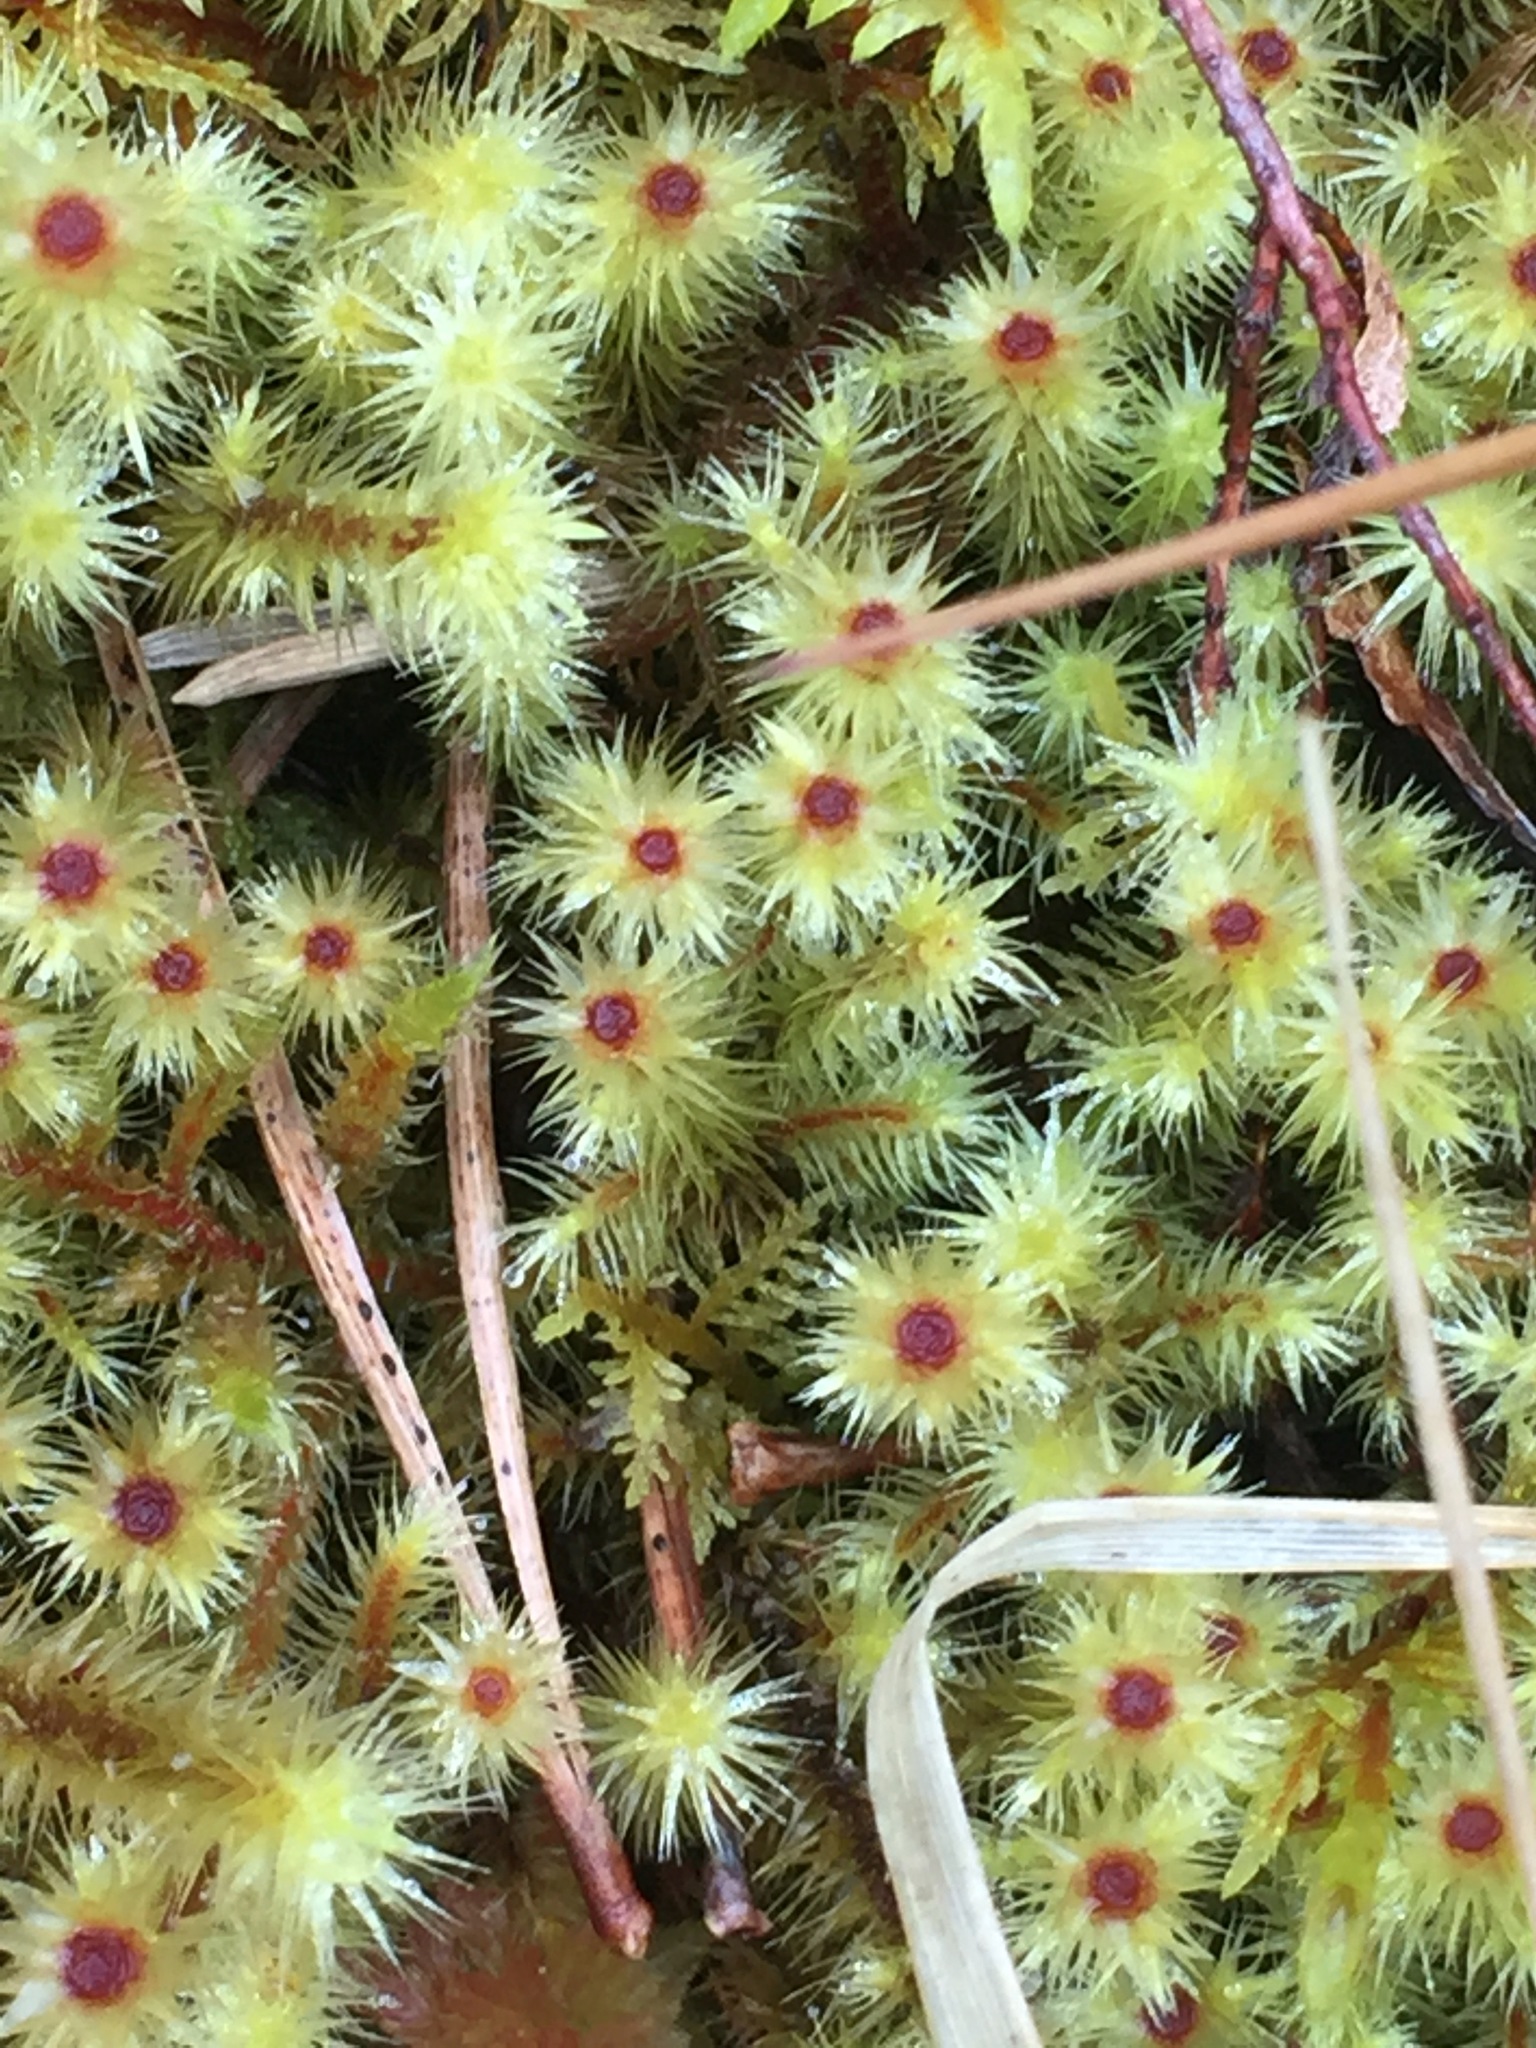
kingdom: Plantae
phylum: Bryophyta
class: Bryopsida
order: Bartramiales
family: Bartramiaceae
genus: Breutelia
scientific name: Breutelia chrysocoma
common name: Bottle-brush moss
